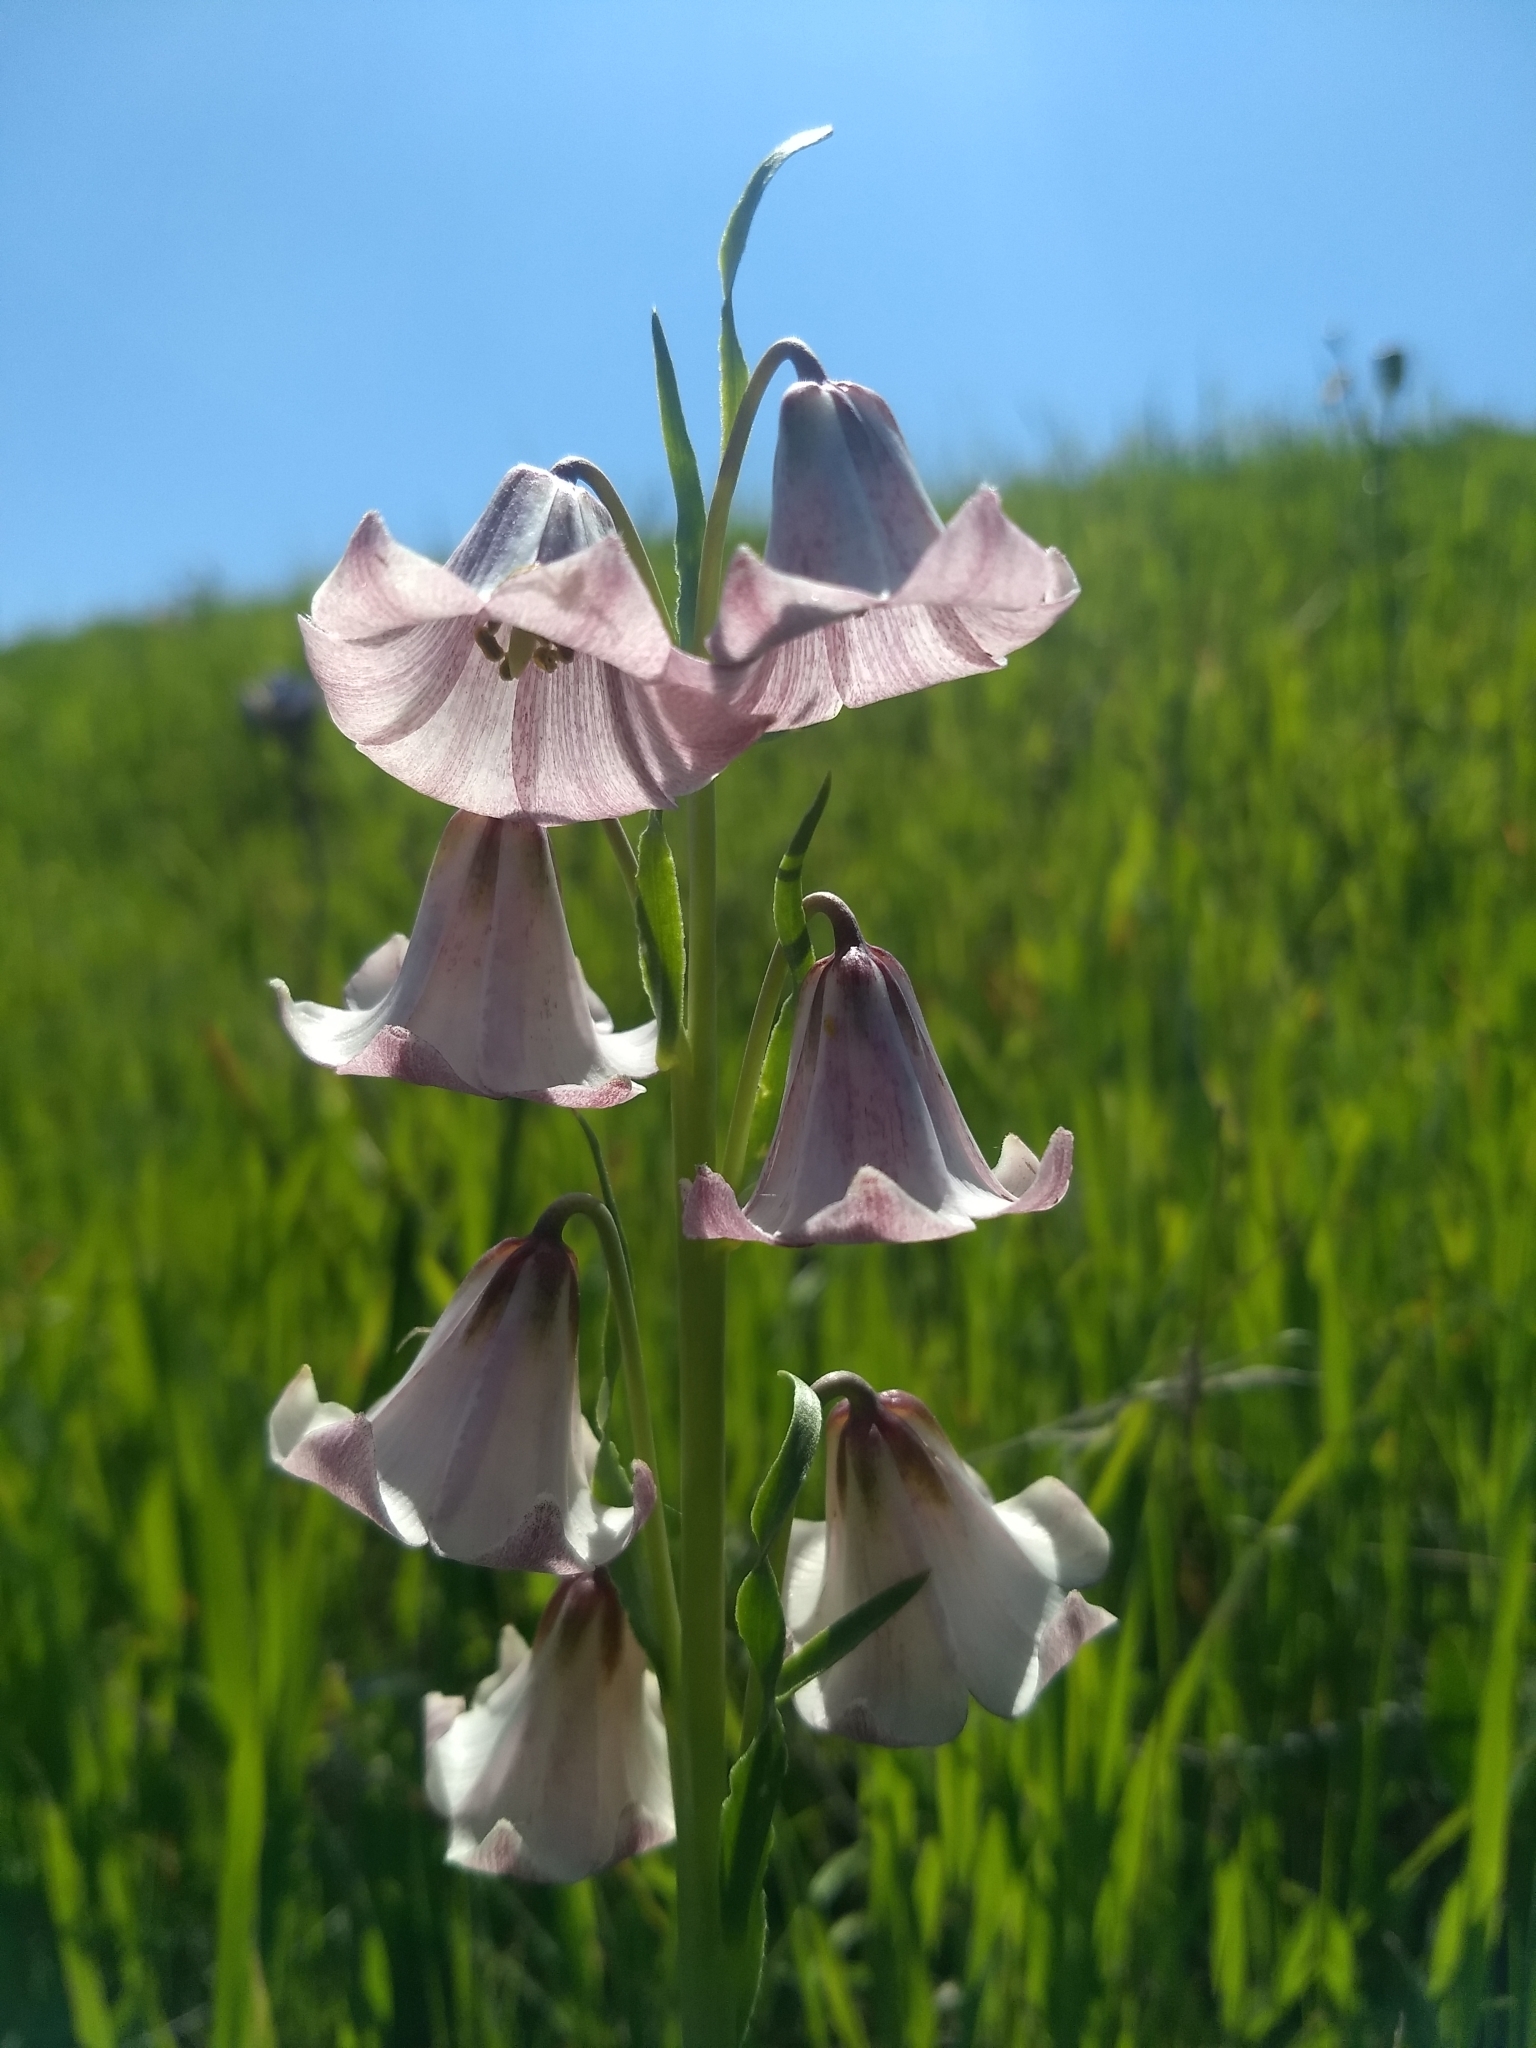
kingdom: Plantae
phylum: Tracheophyta
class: Liliopsida
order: Liliales
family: Liliaceae
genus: Fritillaria
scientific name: Fritillaria striata
